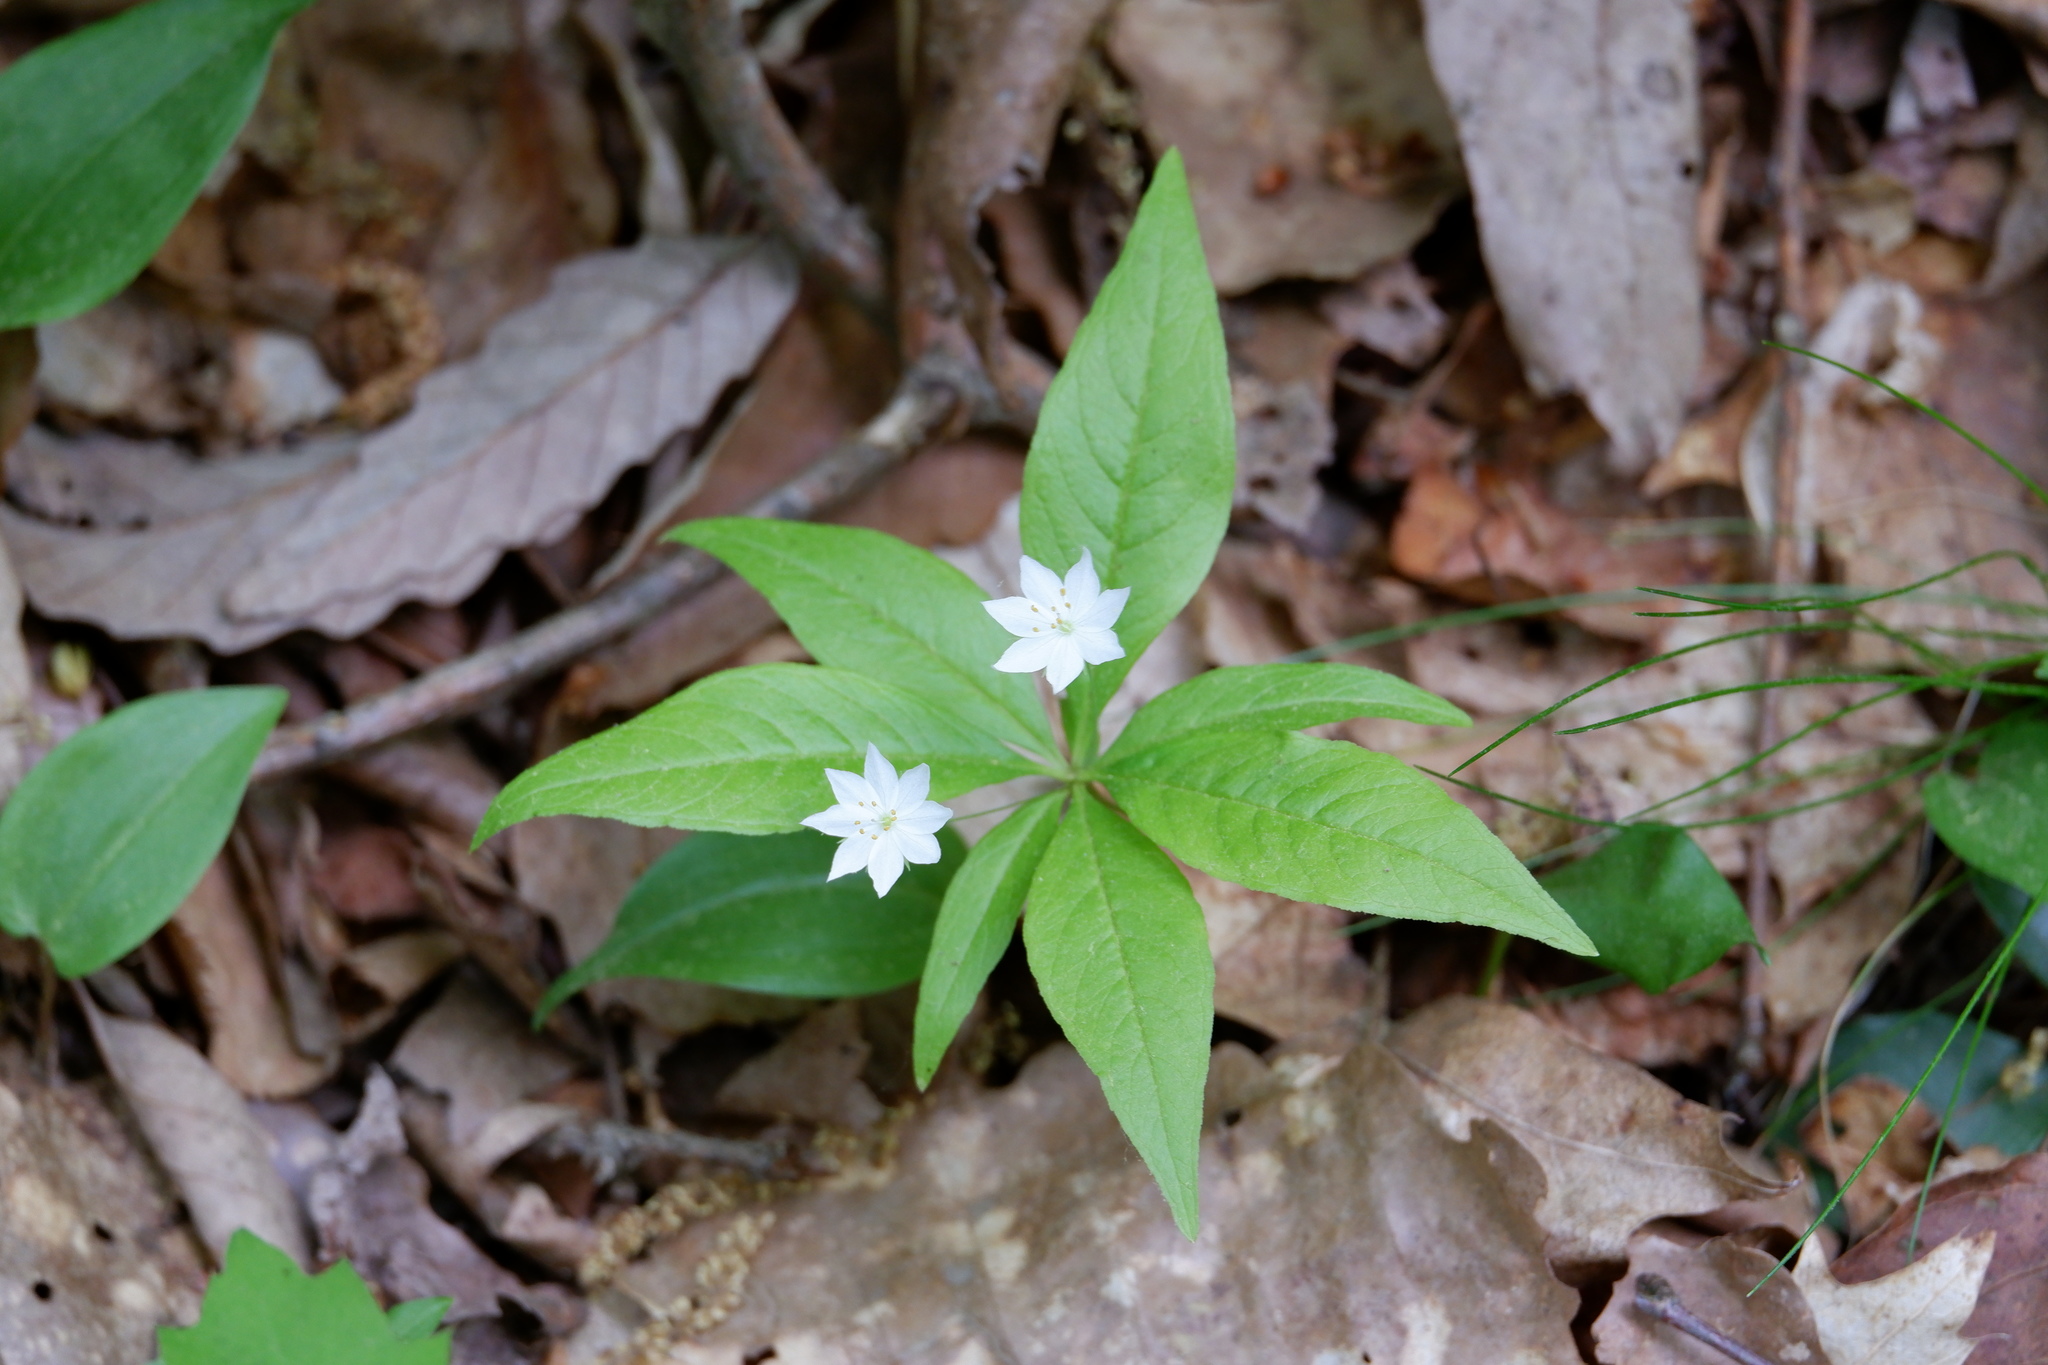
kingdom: Plantae
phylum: Tracheophyta
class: Magnoliopsida
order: Ericales
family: Primulaceae
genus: Lysimachia
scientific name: Lysimachia borealis
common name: American starflower
